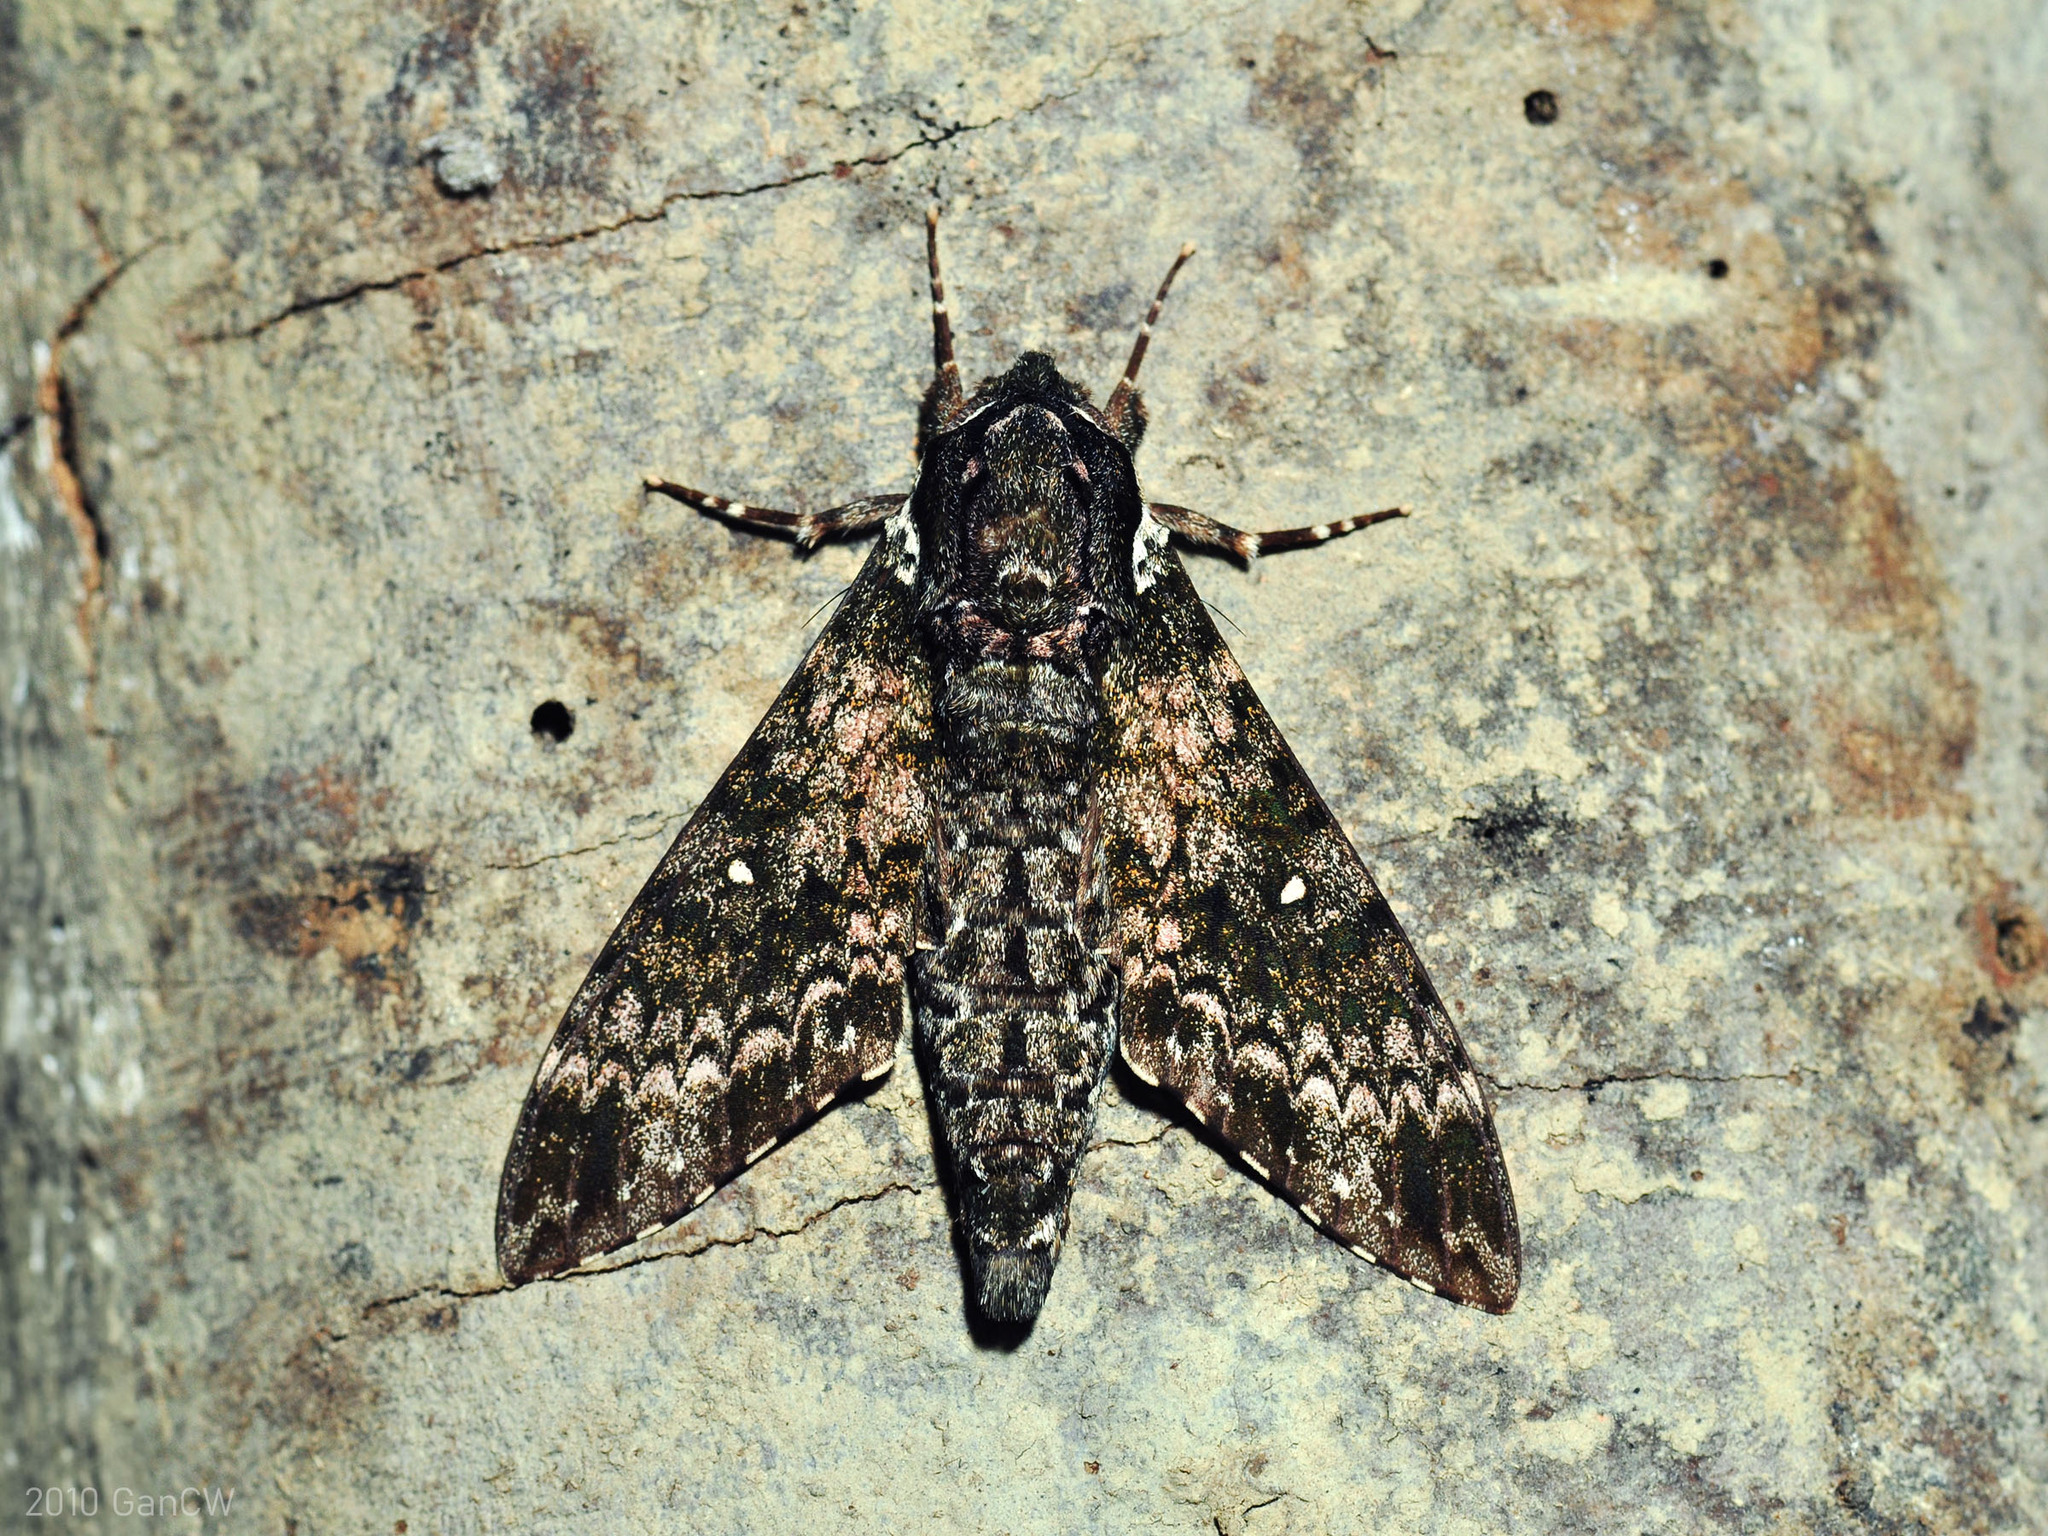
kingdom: Animalia
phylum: Arthropoda
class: Insecta
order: Lepidoptera
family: Sphingidae
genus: Dolbina
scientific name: Dolbina borneensis
